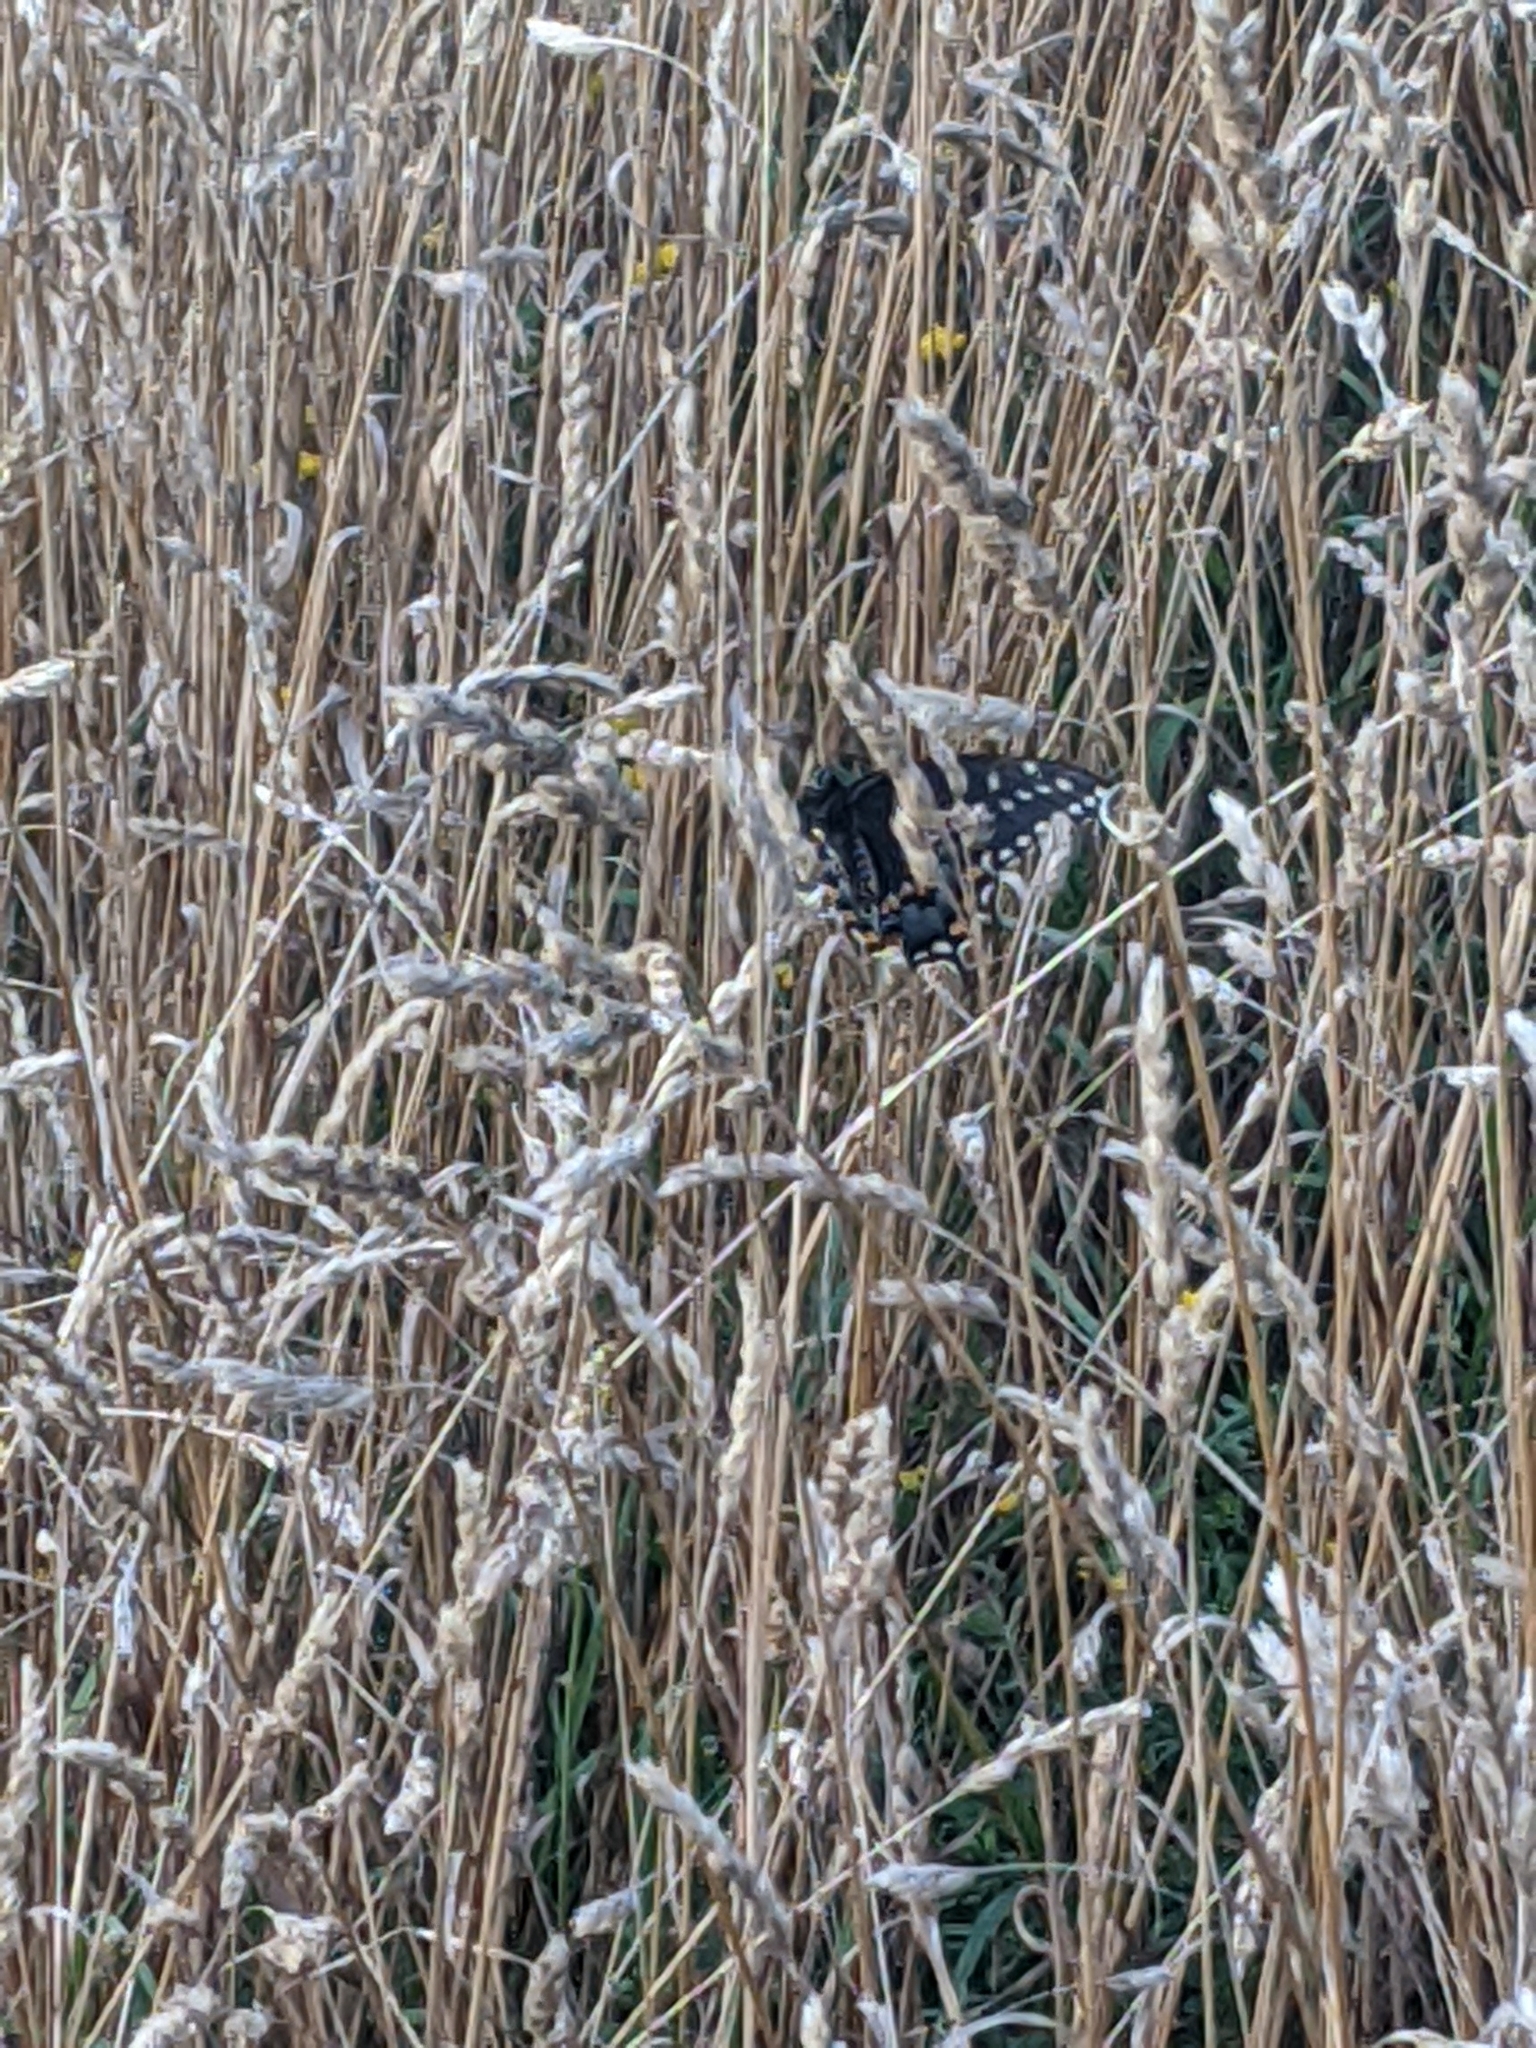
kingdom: Animalia
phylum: Arthropoda
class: Insecta
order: Lepidoptera
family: Papilionidae
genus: Papilio
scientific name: Papilio polyxenes
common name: Black swallowtail
